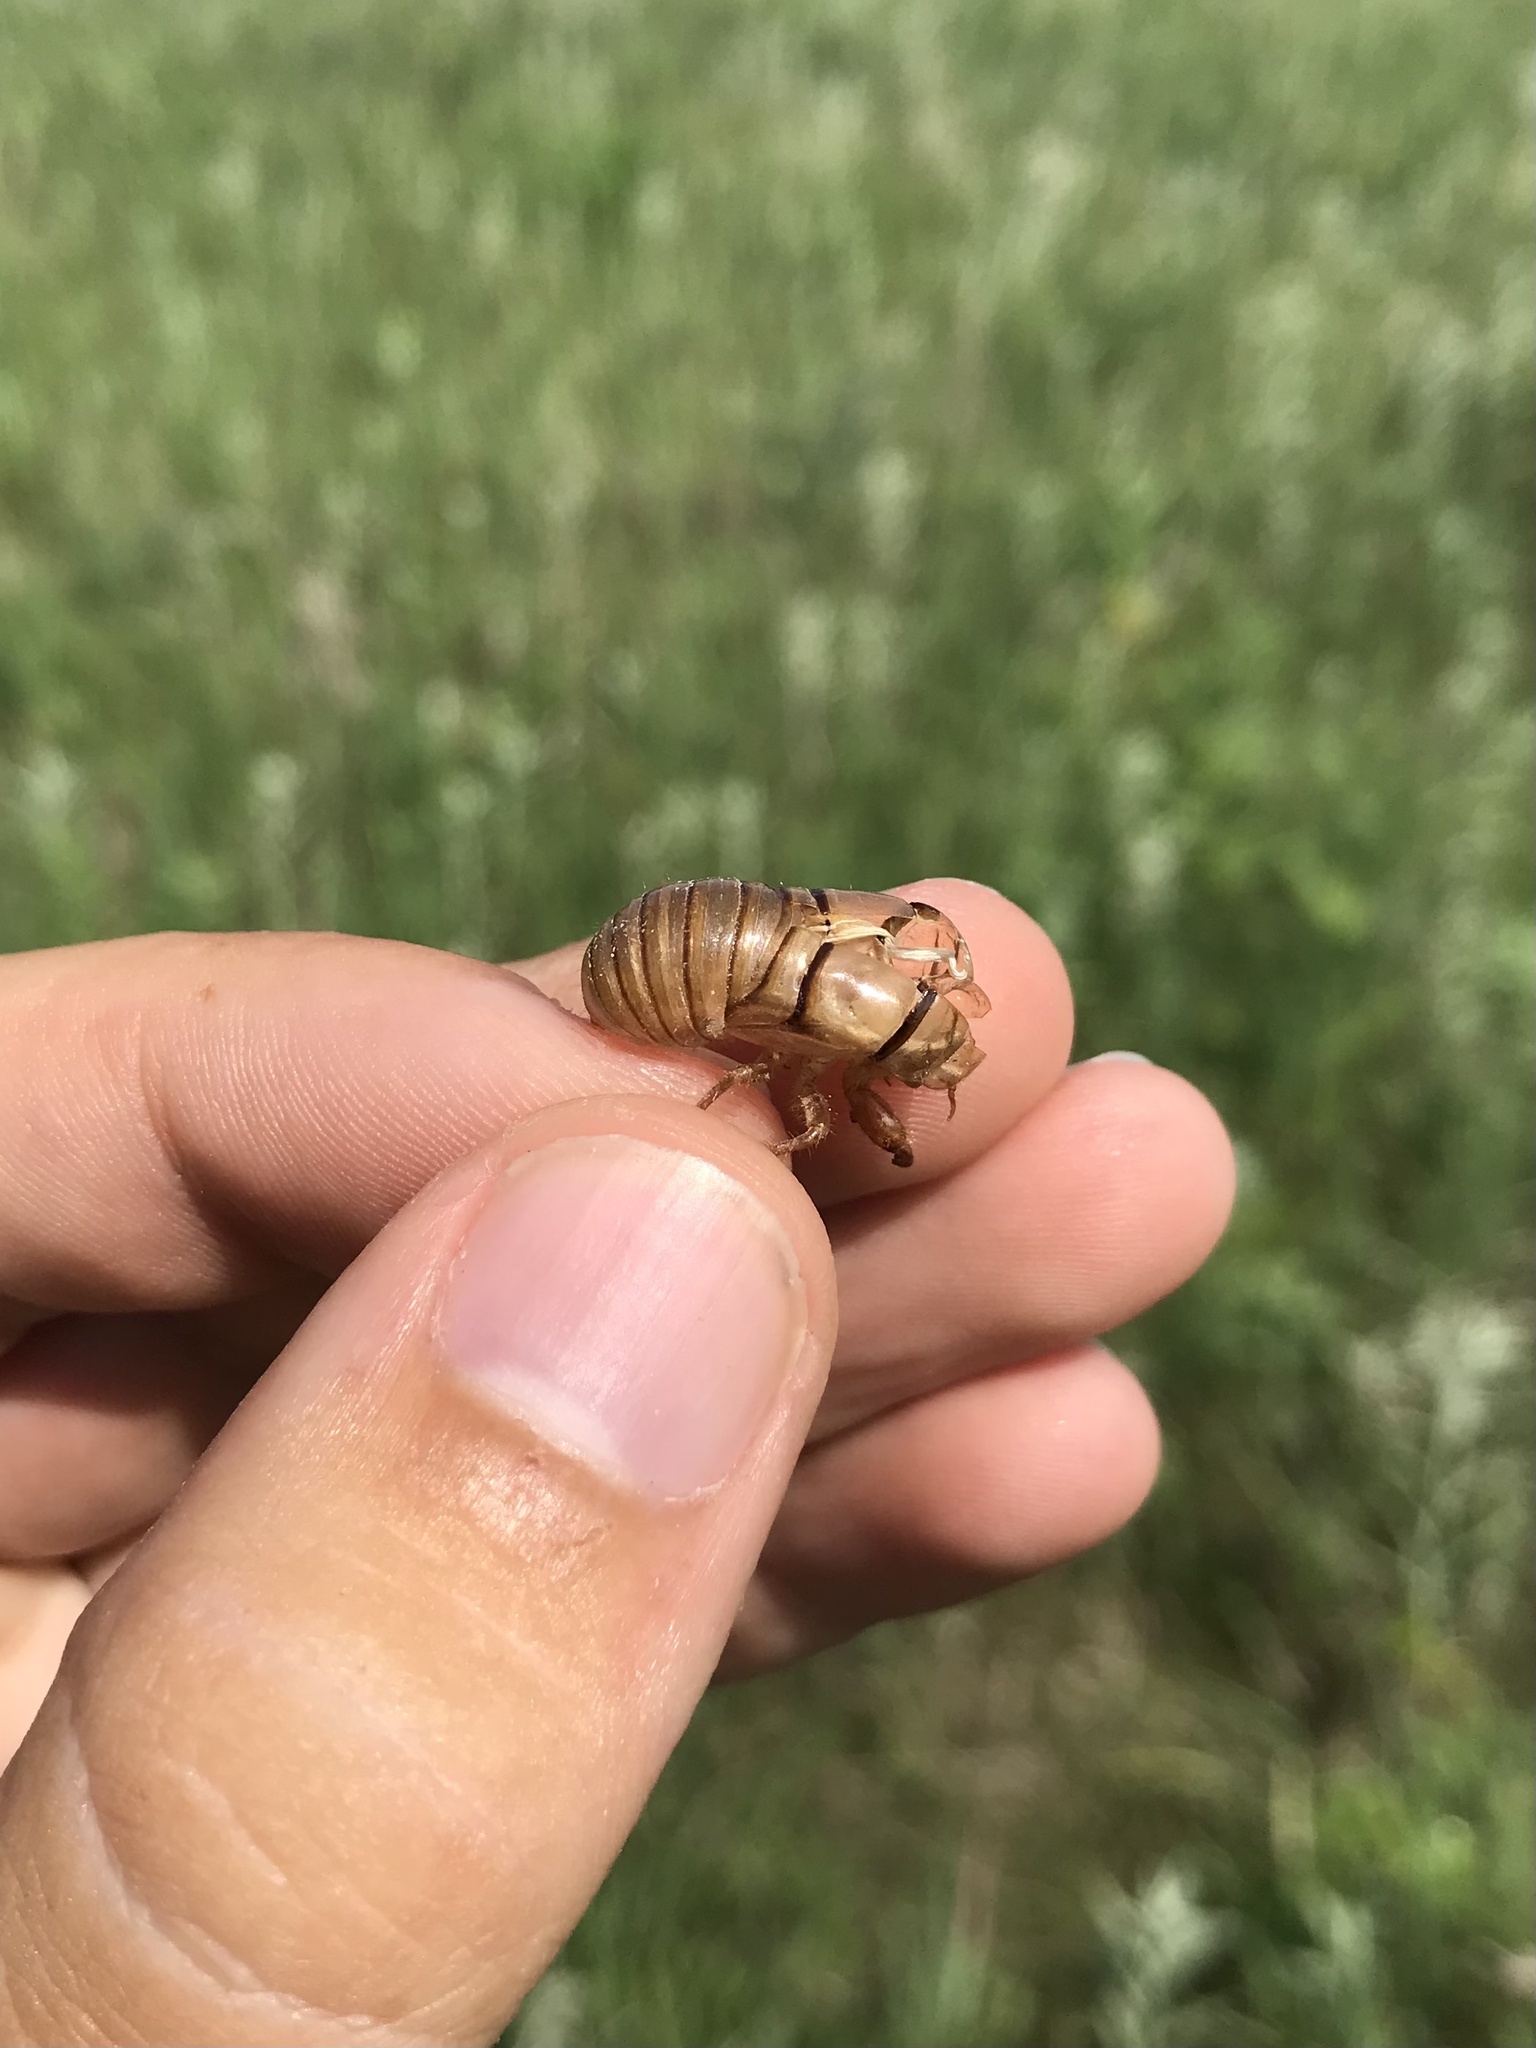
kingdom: Animalia
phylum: Arthropoda
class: Insecta
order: Hemiptera
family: Cicadidae
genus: Okanagana
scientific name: Okanagana balli
